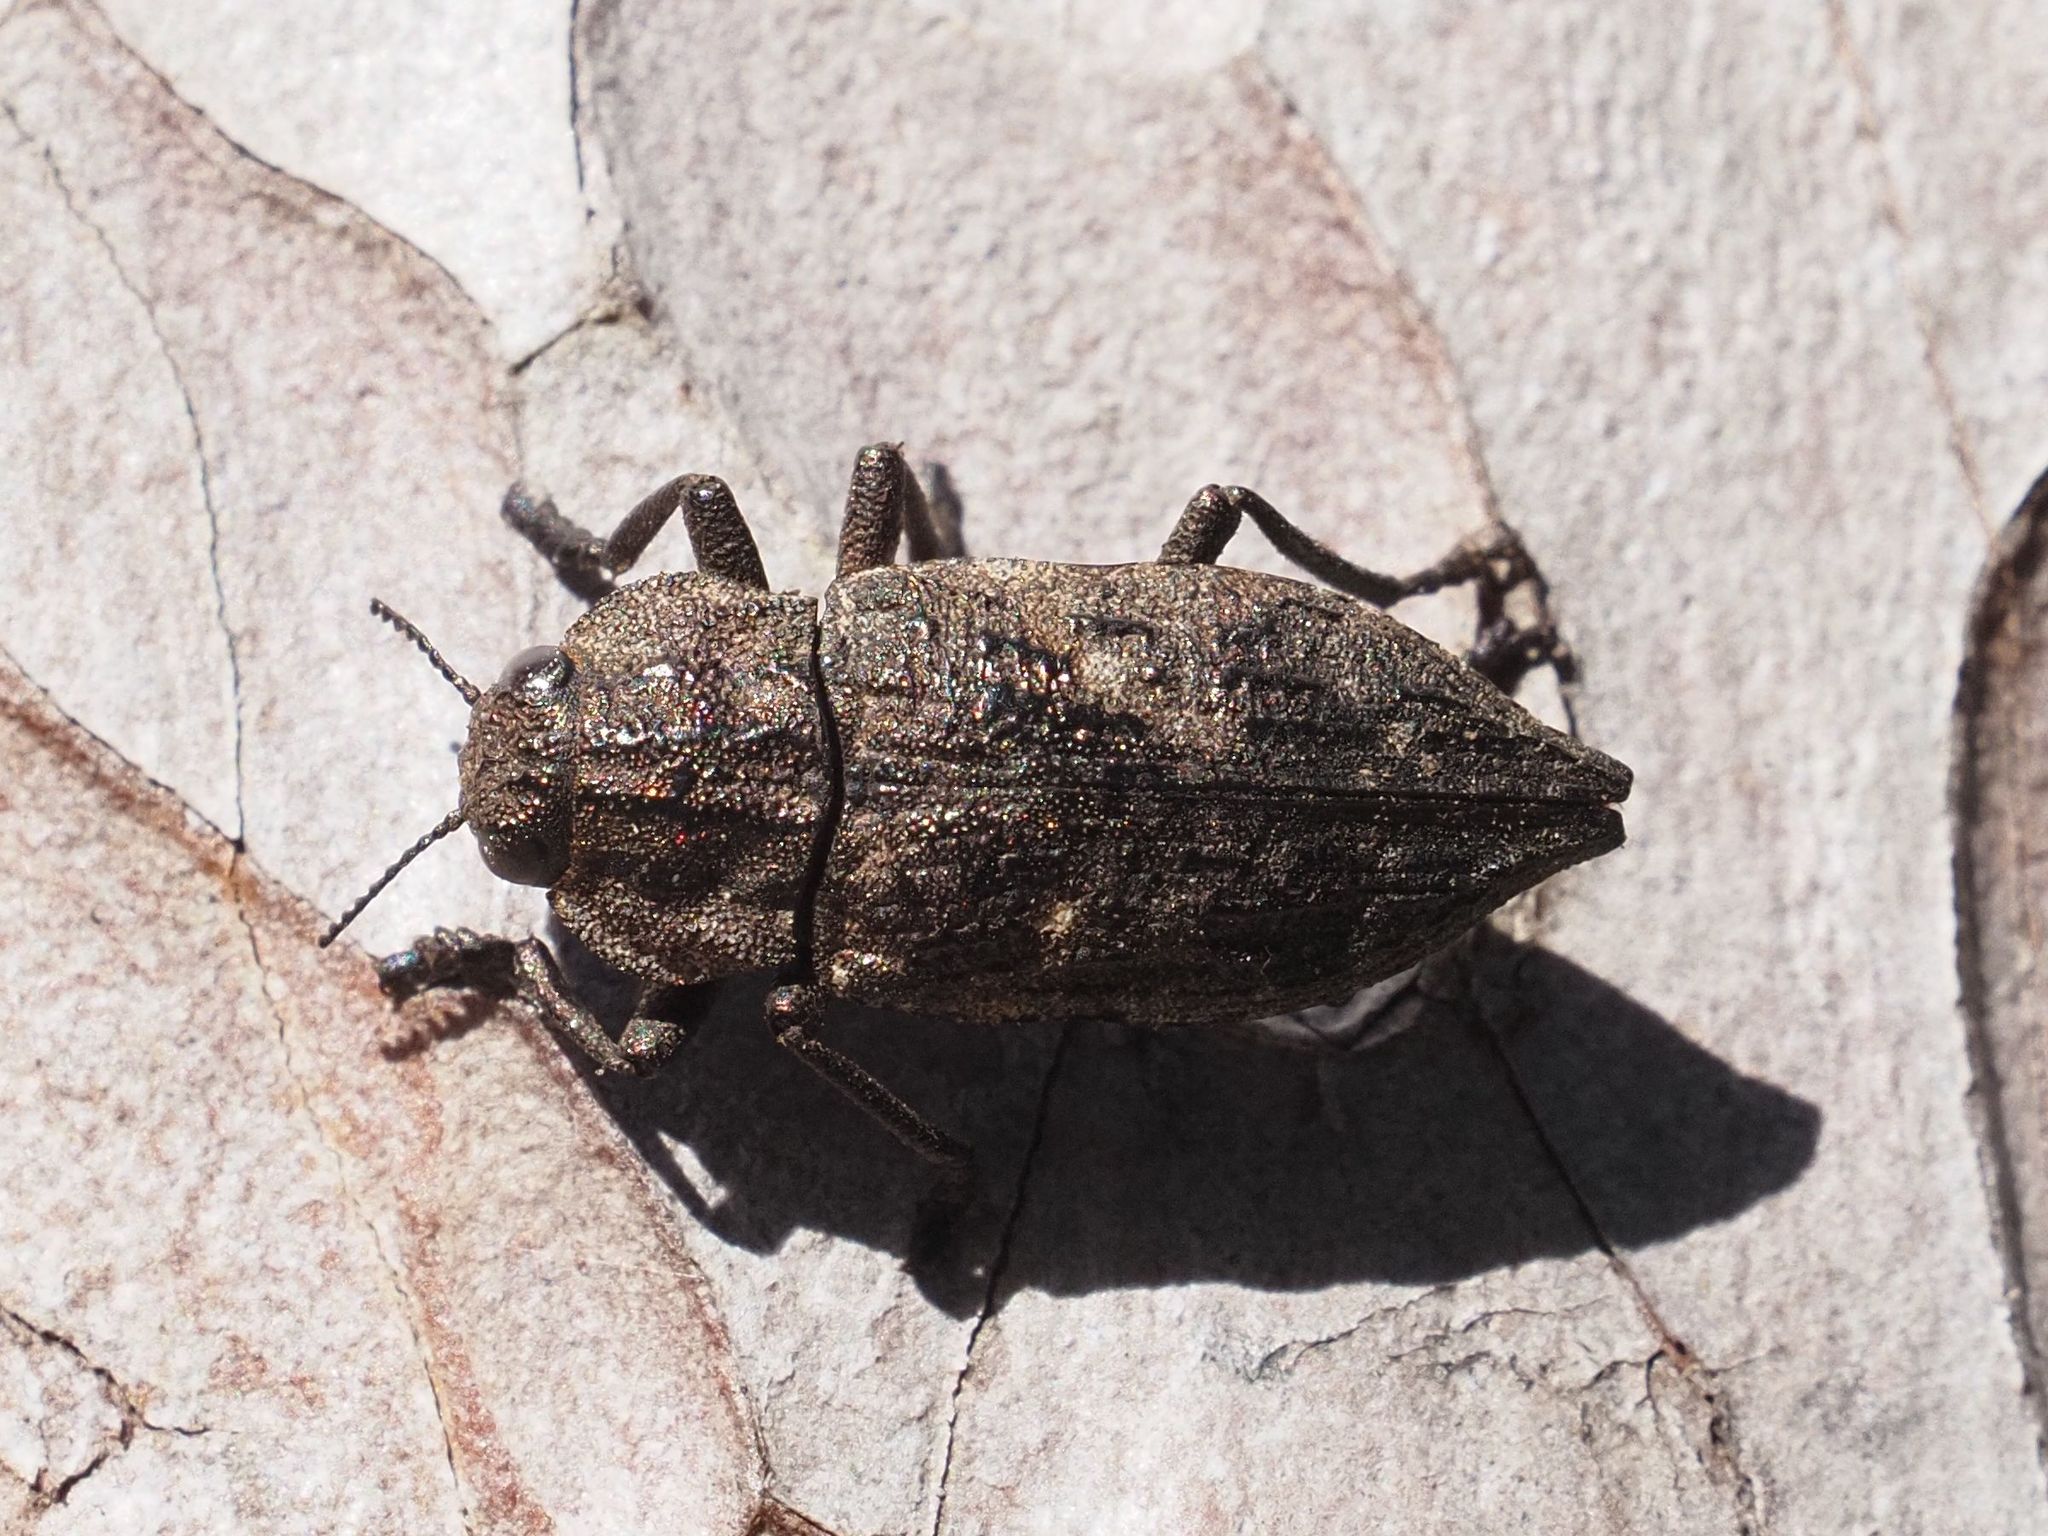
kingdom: Animalia
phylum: Arthropoda
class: Insecta
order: Coleoptera
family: Buprestidae
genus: Dicerca
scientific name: Dicerca moesta
